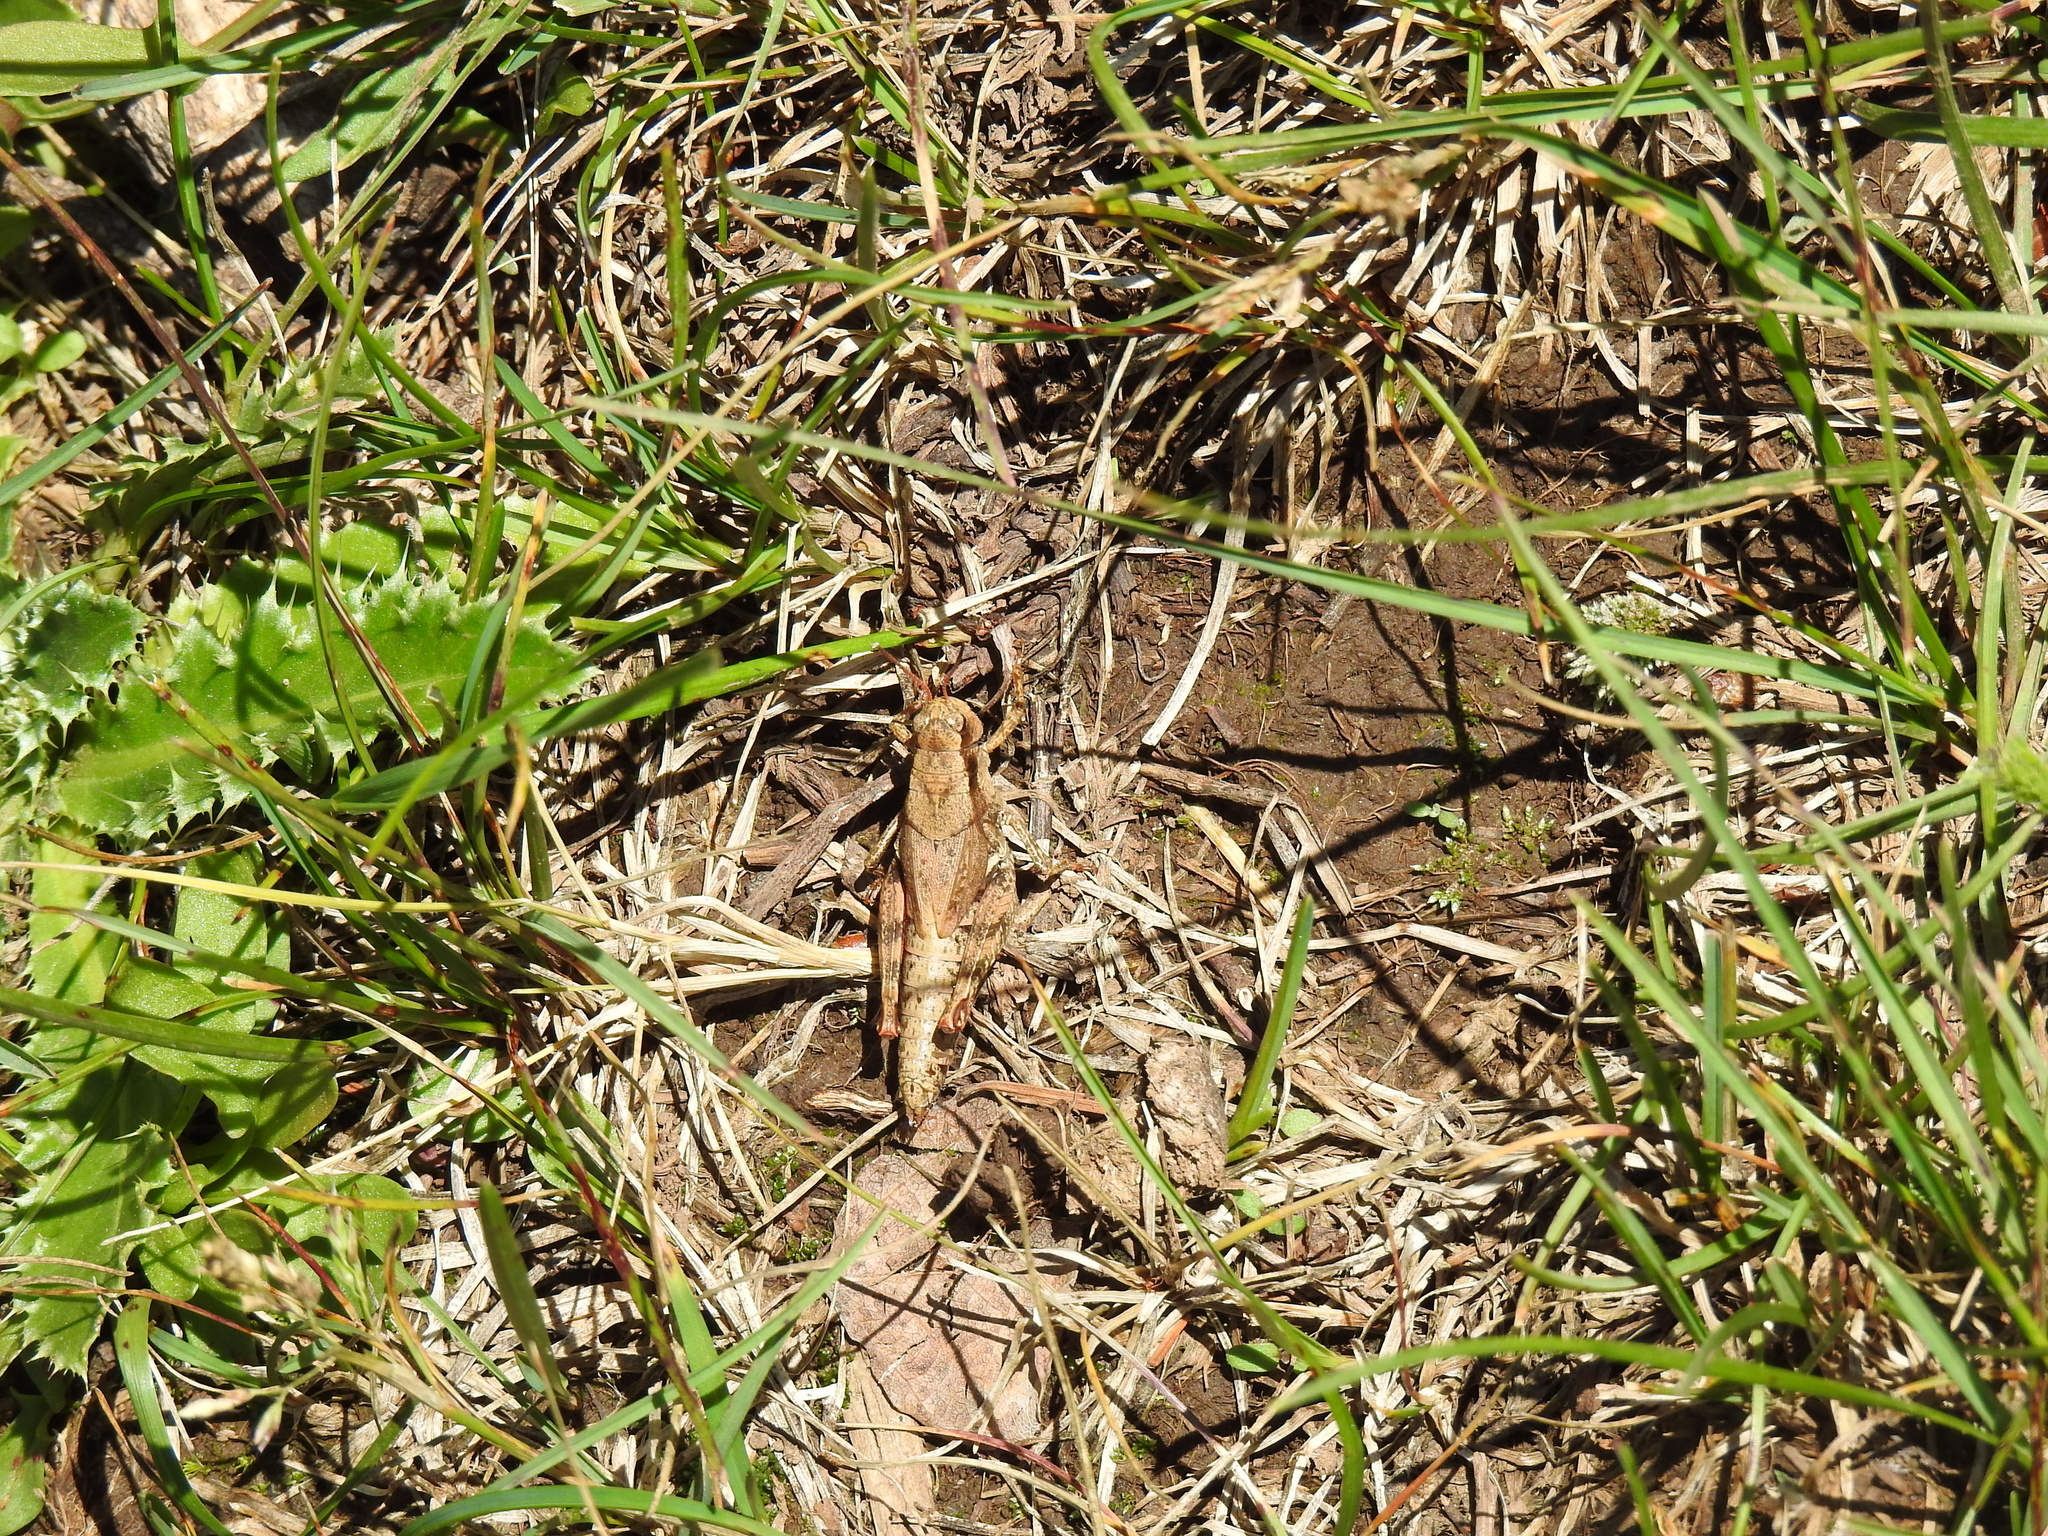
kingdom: Animalia
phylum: Arthropoda
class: Insecta
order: Orthoptera
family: Acrididae
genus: Melanoplus
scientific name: Melanoplus adapi
